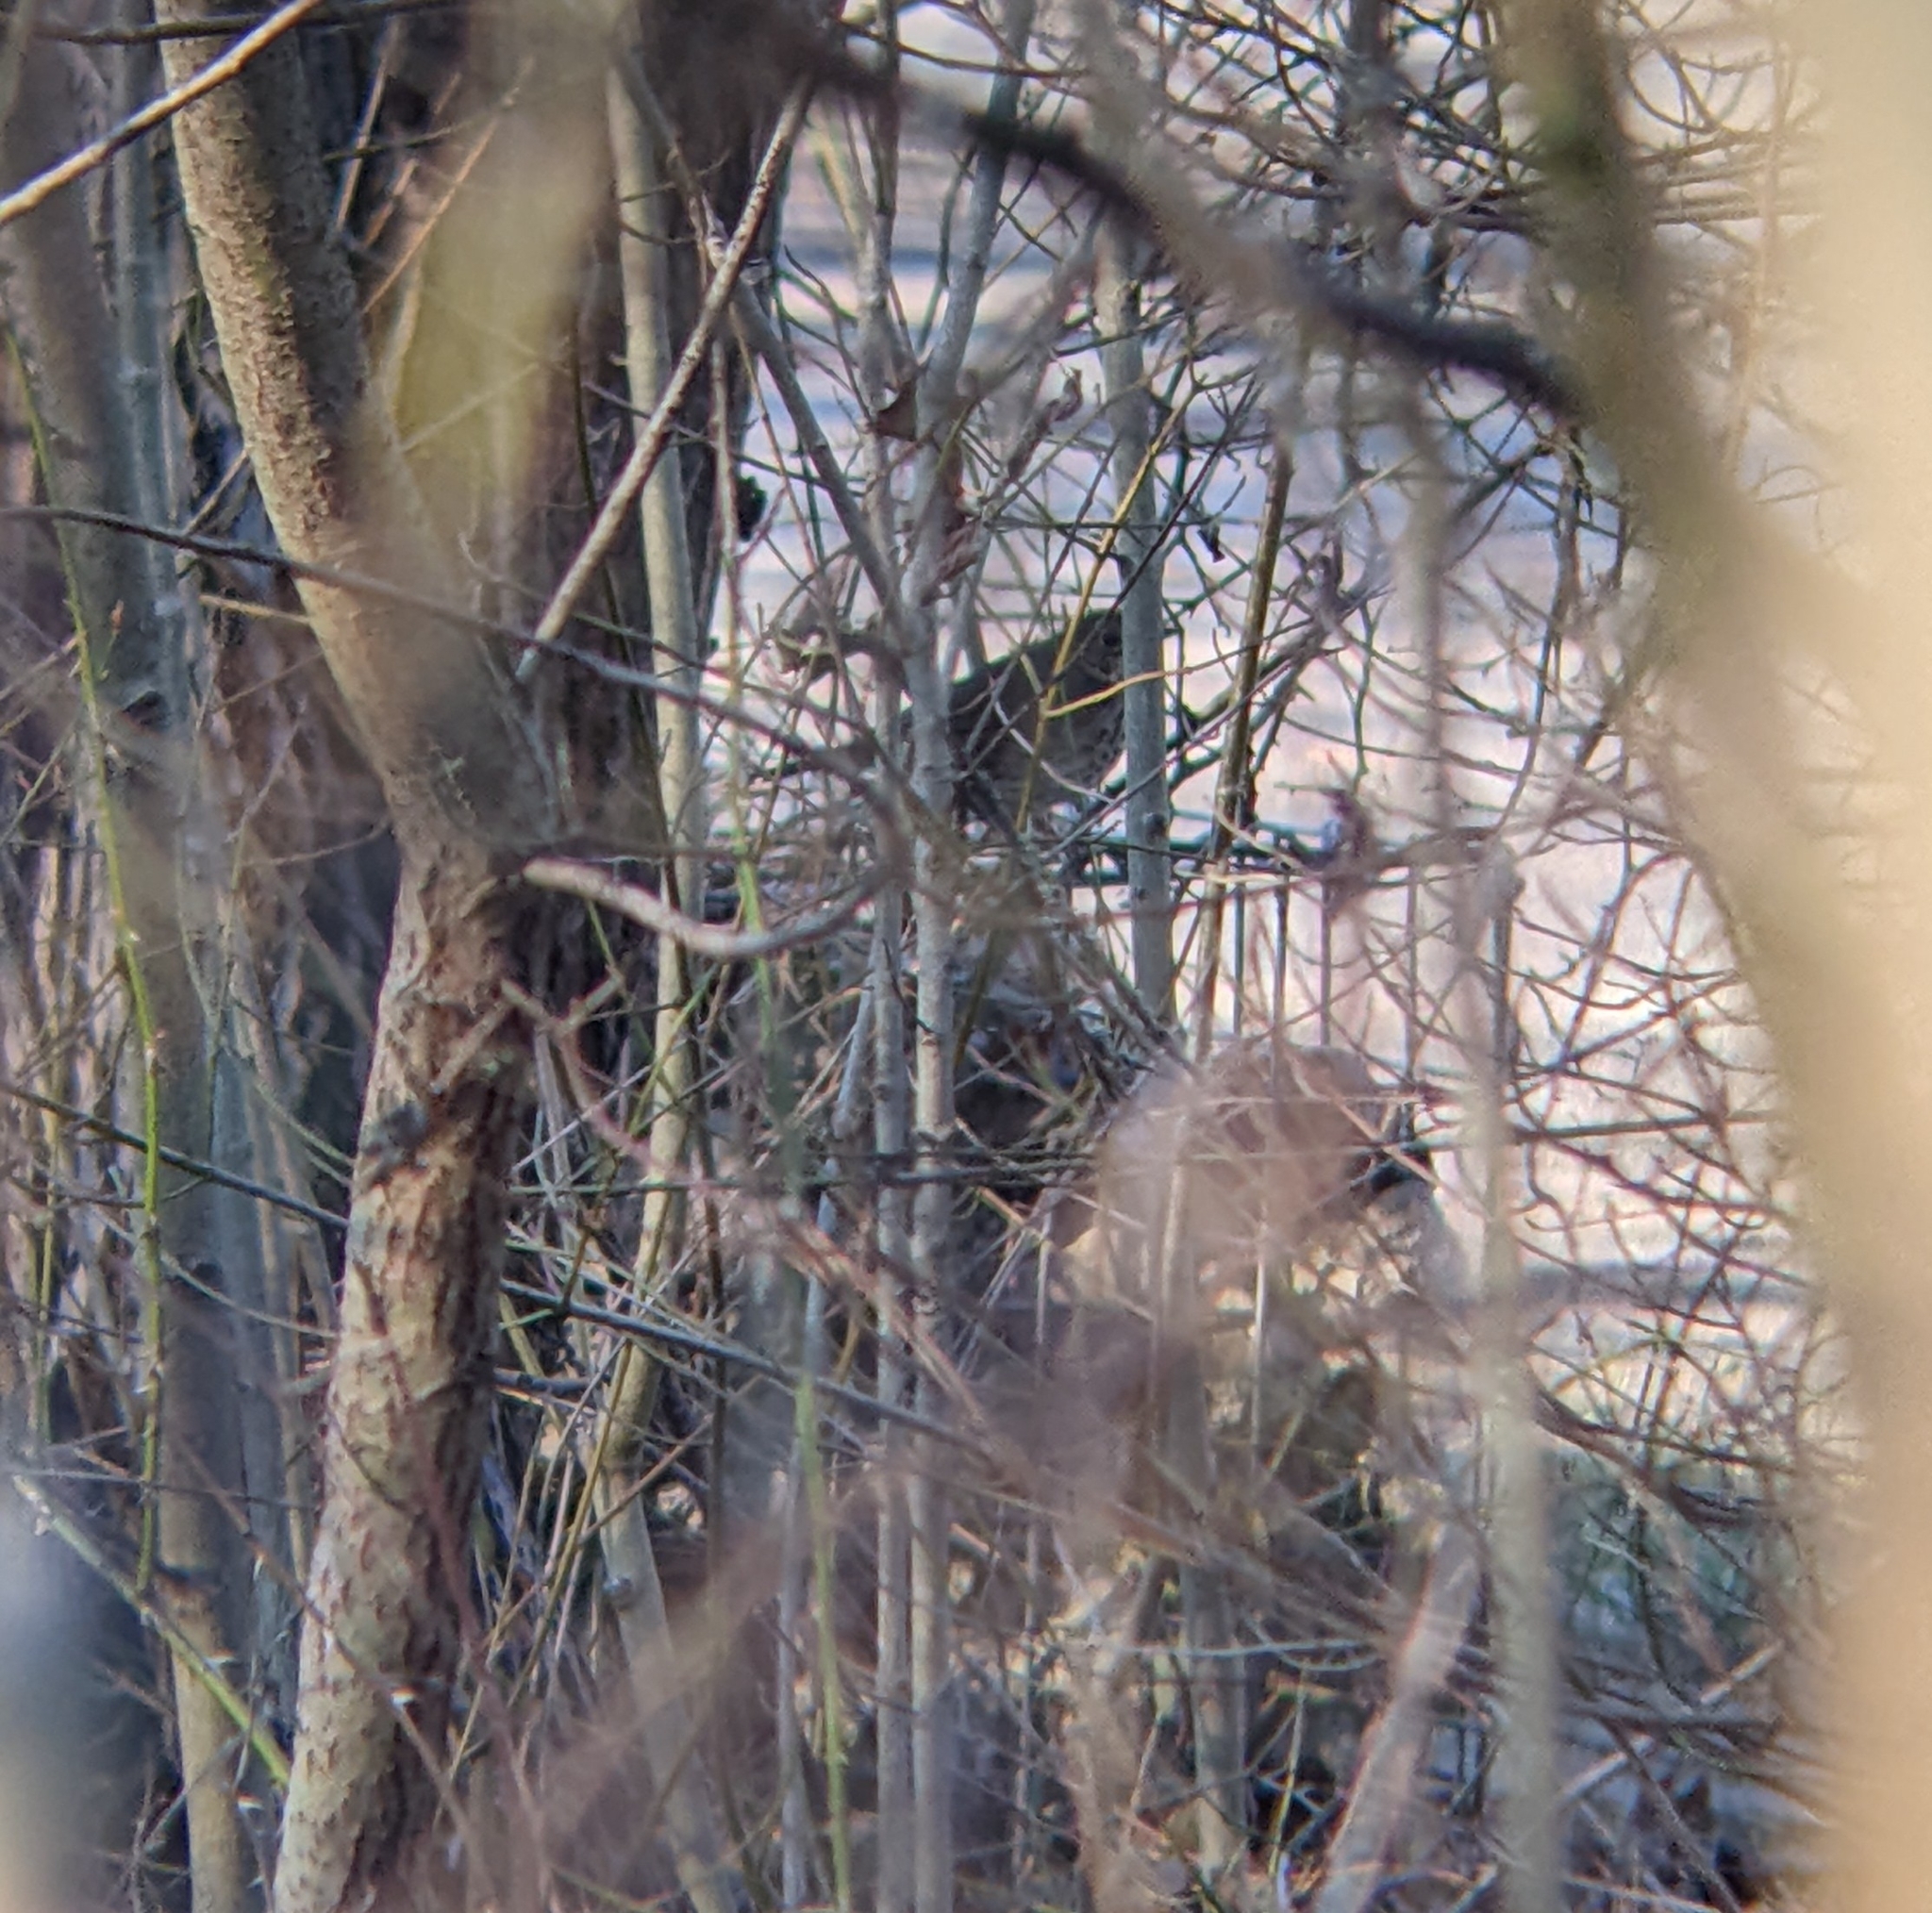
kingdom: Animalia
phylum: Chordata
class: Aves
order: Passeriformes
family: Turdidae
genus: Turdus
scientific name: Turdus philomelos
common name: Song thrush
